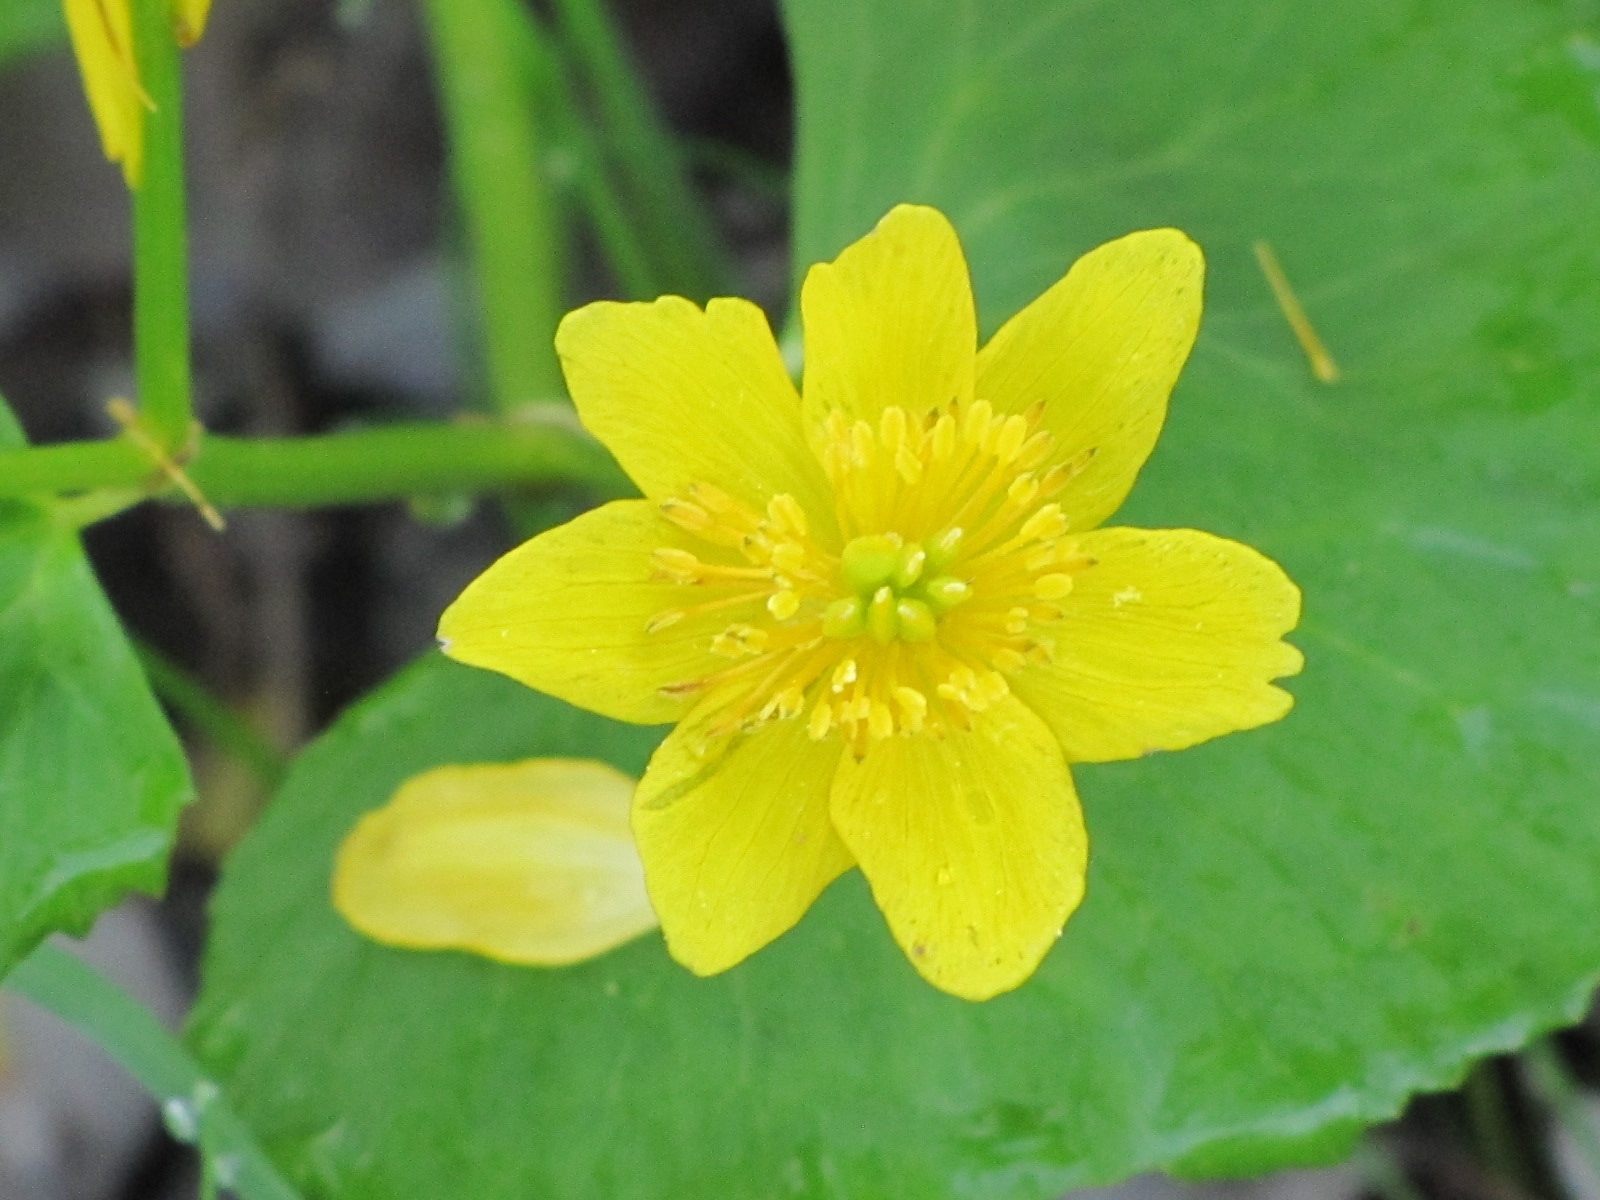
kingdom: Plantae
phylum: Tracheophyta
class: Magnoliopsida
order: Ranunculales
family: Ranunculaceae
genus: Caltha
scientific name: Caltha palustris
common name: Marsh marigold
